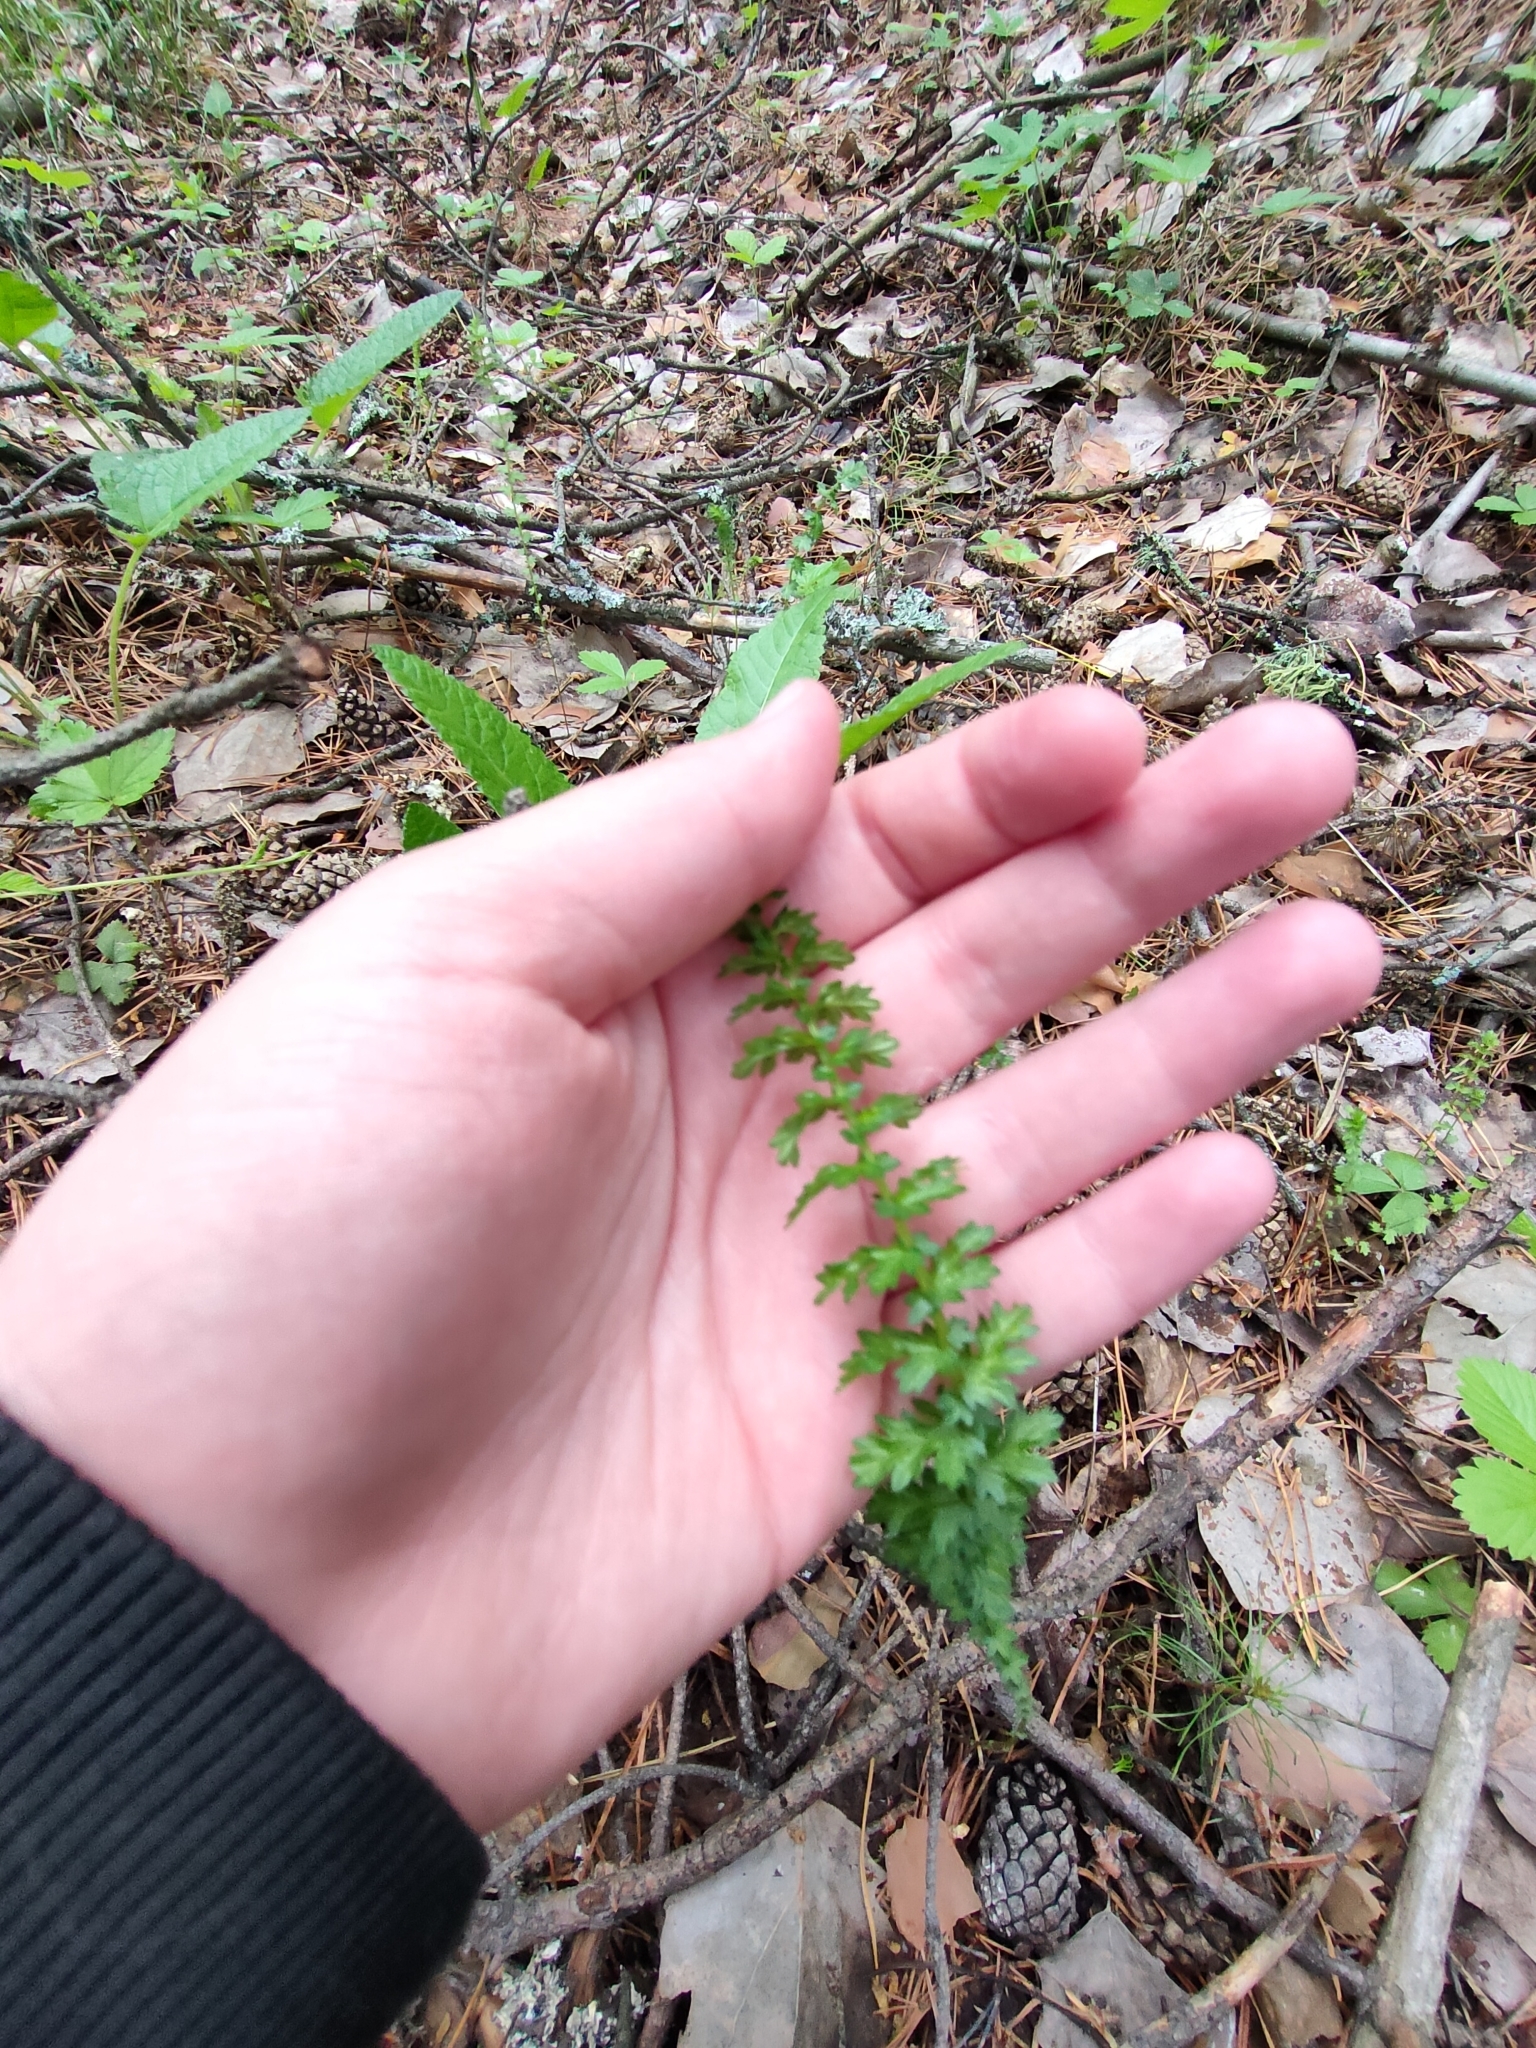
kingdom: Plantae
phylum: Tracheophyta
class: Magnoliopsida
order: Rosales
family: Rosaceae
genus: Filipendula
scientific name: Filipendula vulgaris
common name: Dropwort
